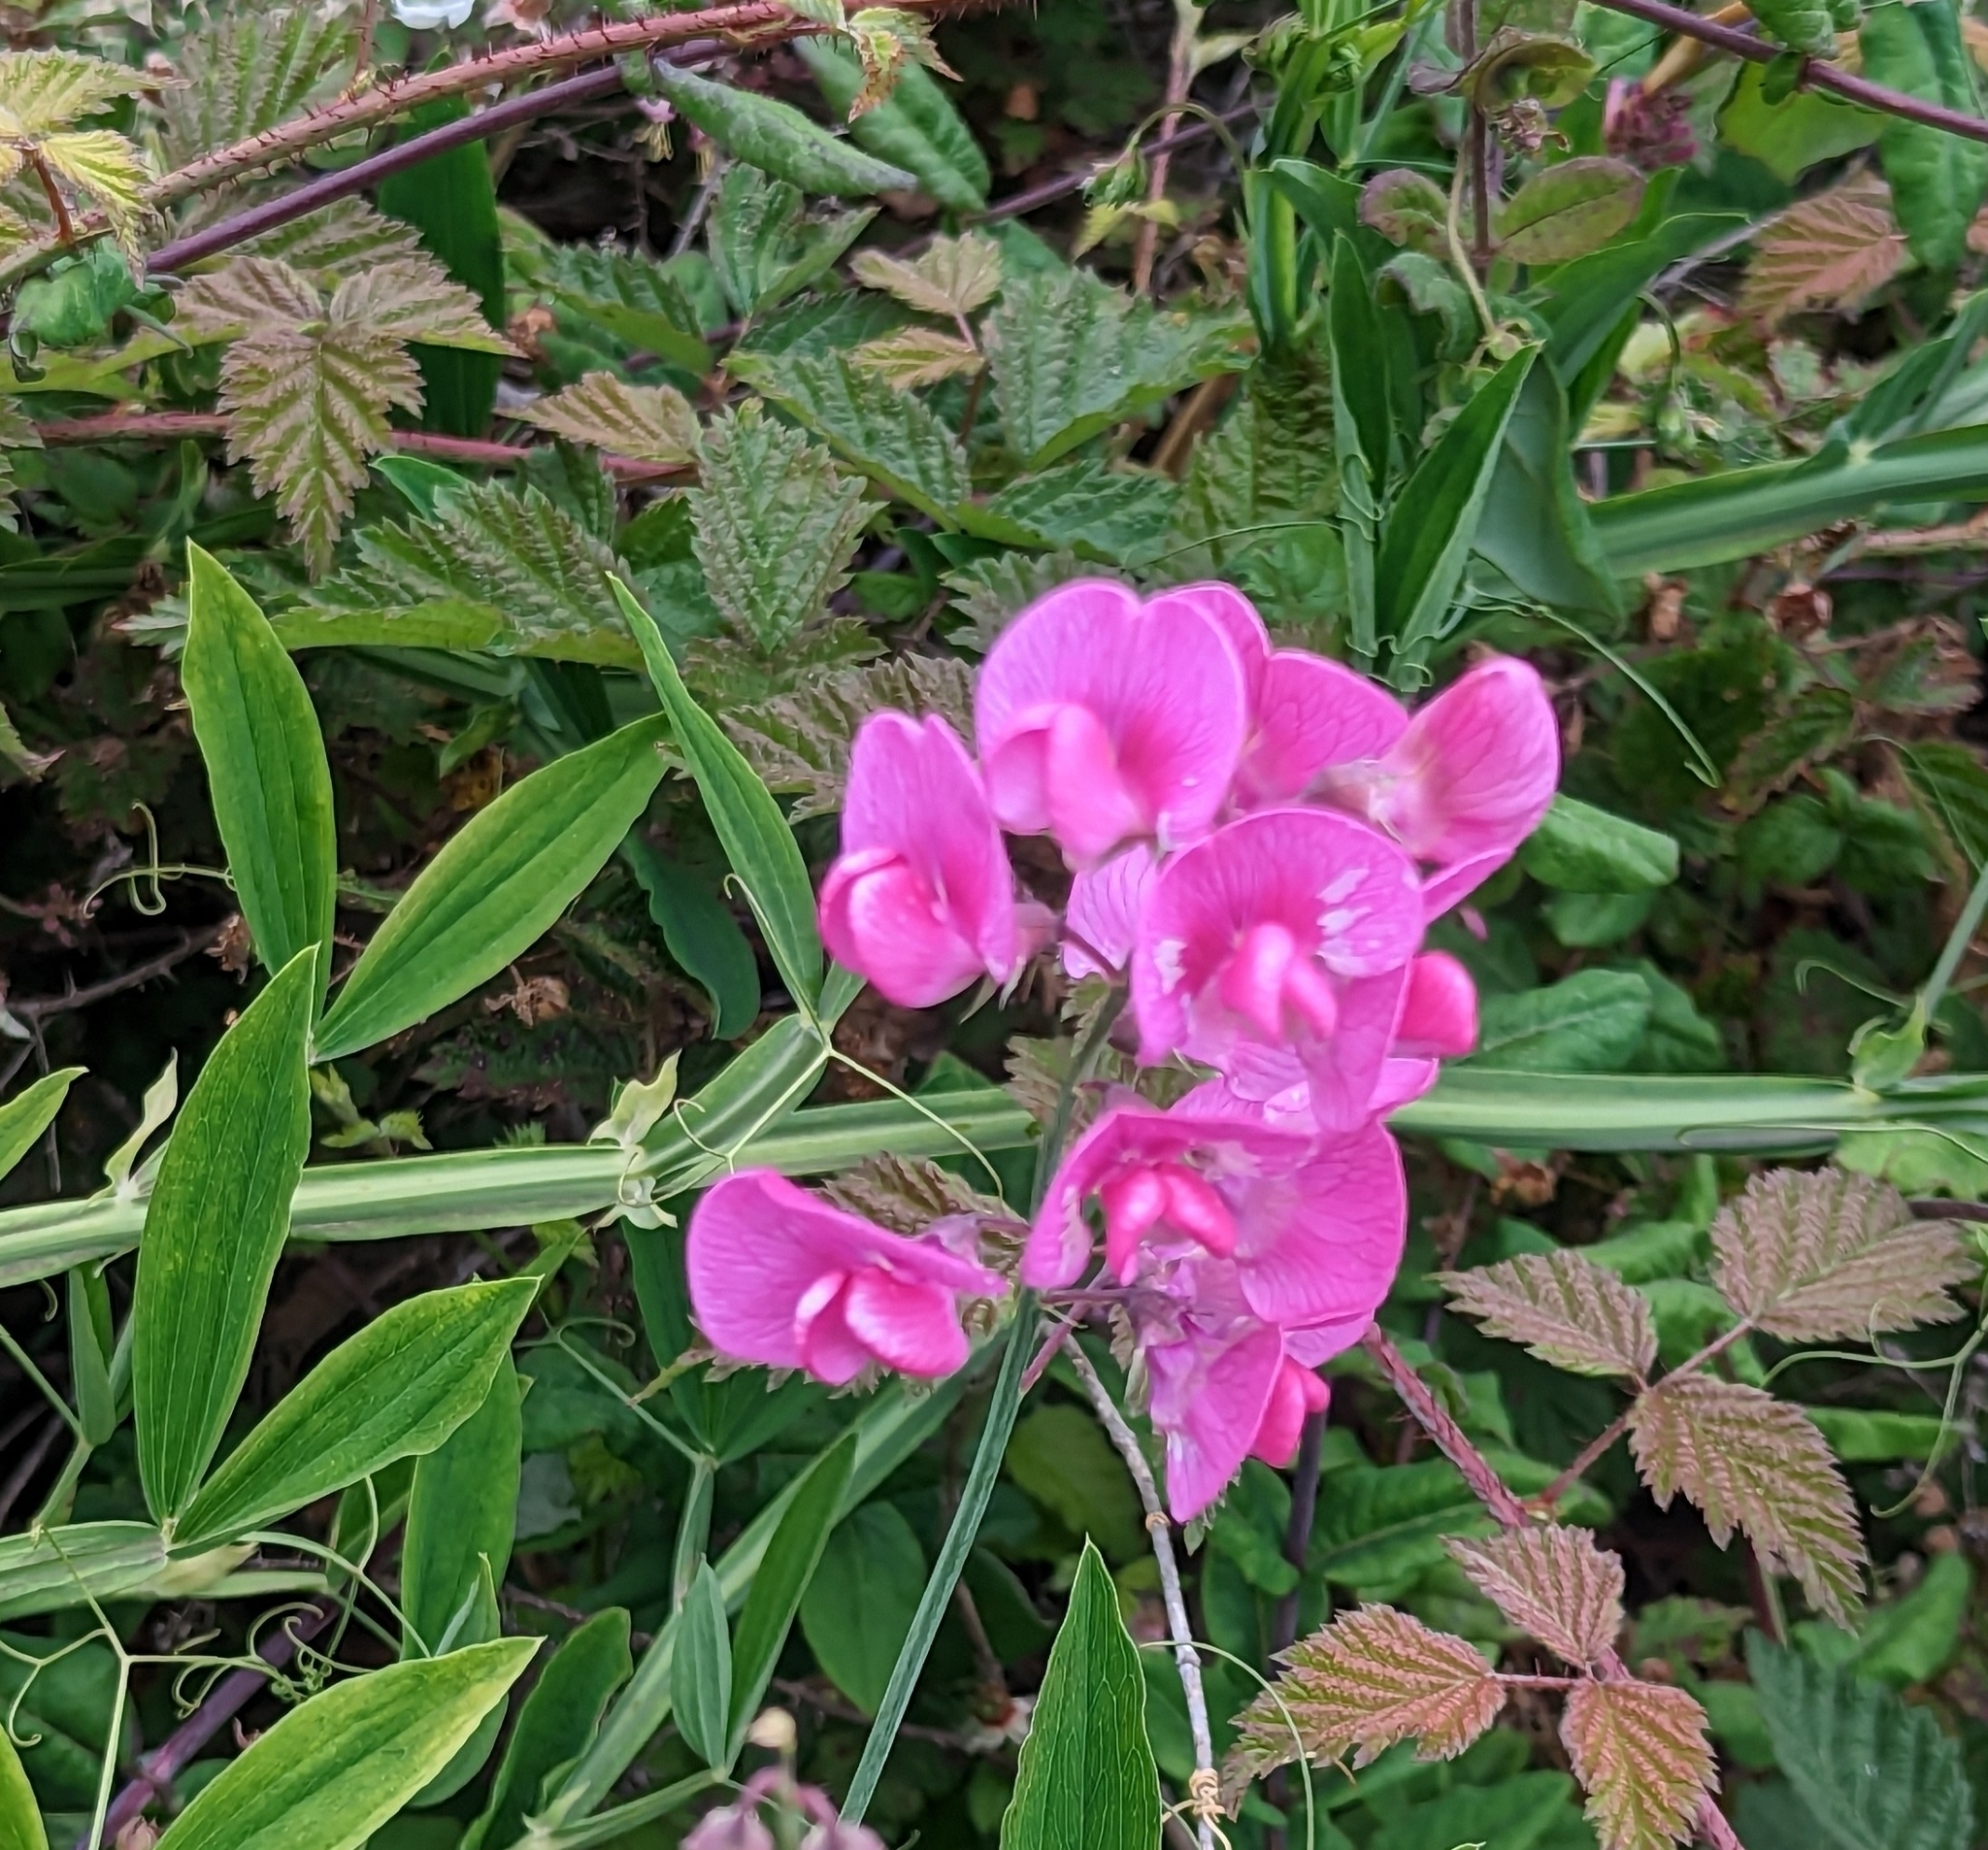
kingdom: Plantae
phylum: Tracheophyta
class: Magnoliopsida
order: Fabales
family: Fabaceae
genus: Lathyrus
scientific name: Lathyrus latifolius
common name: Perennial pea
